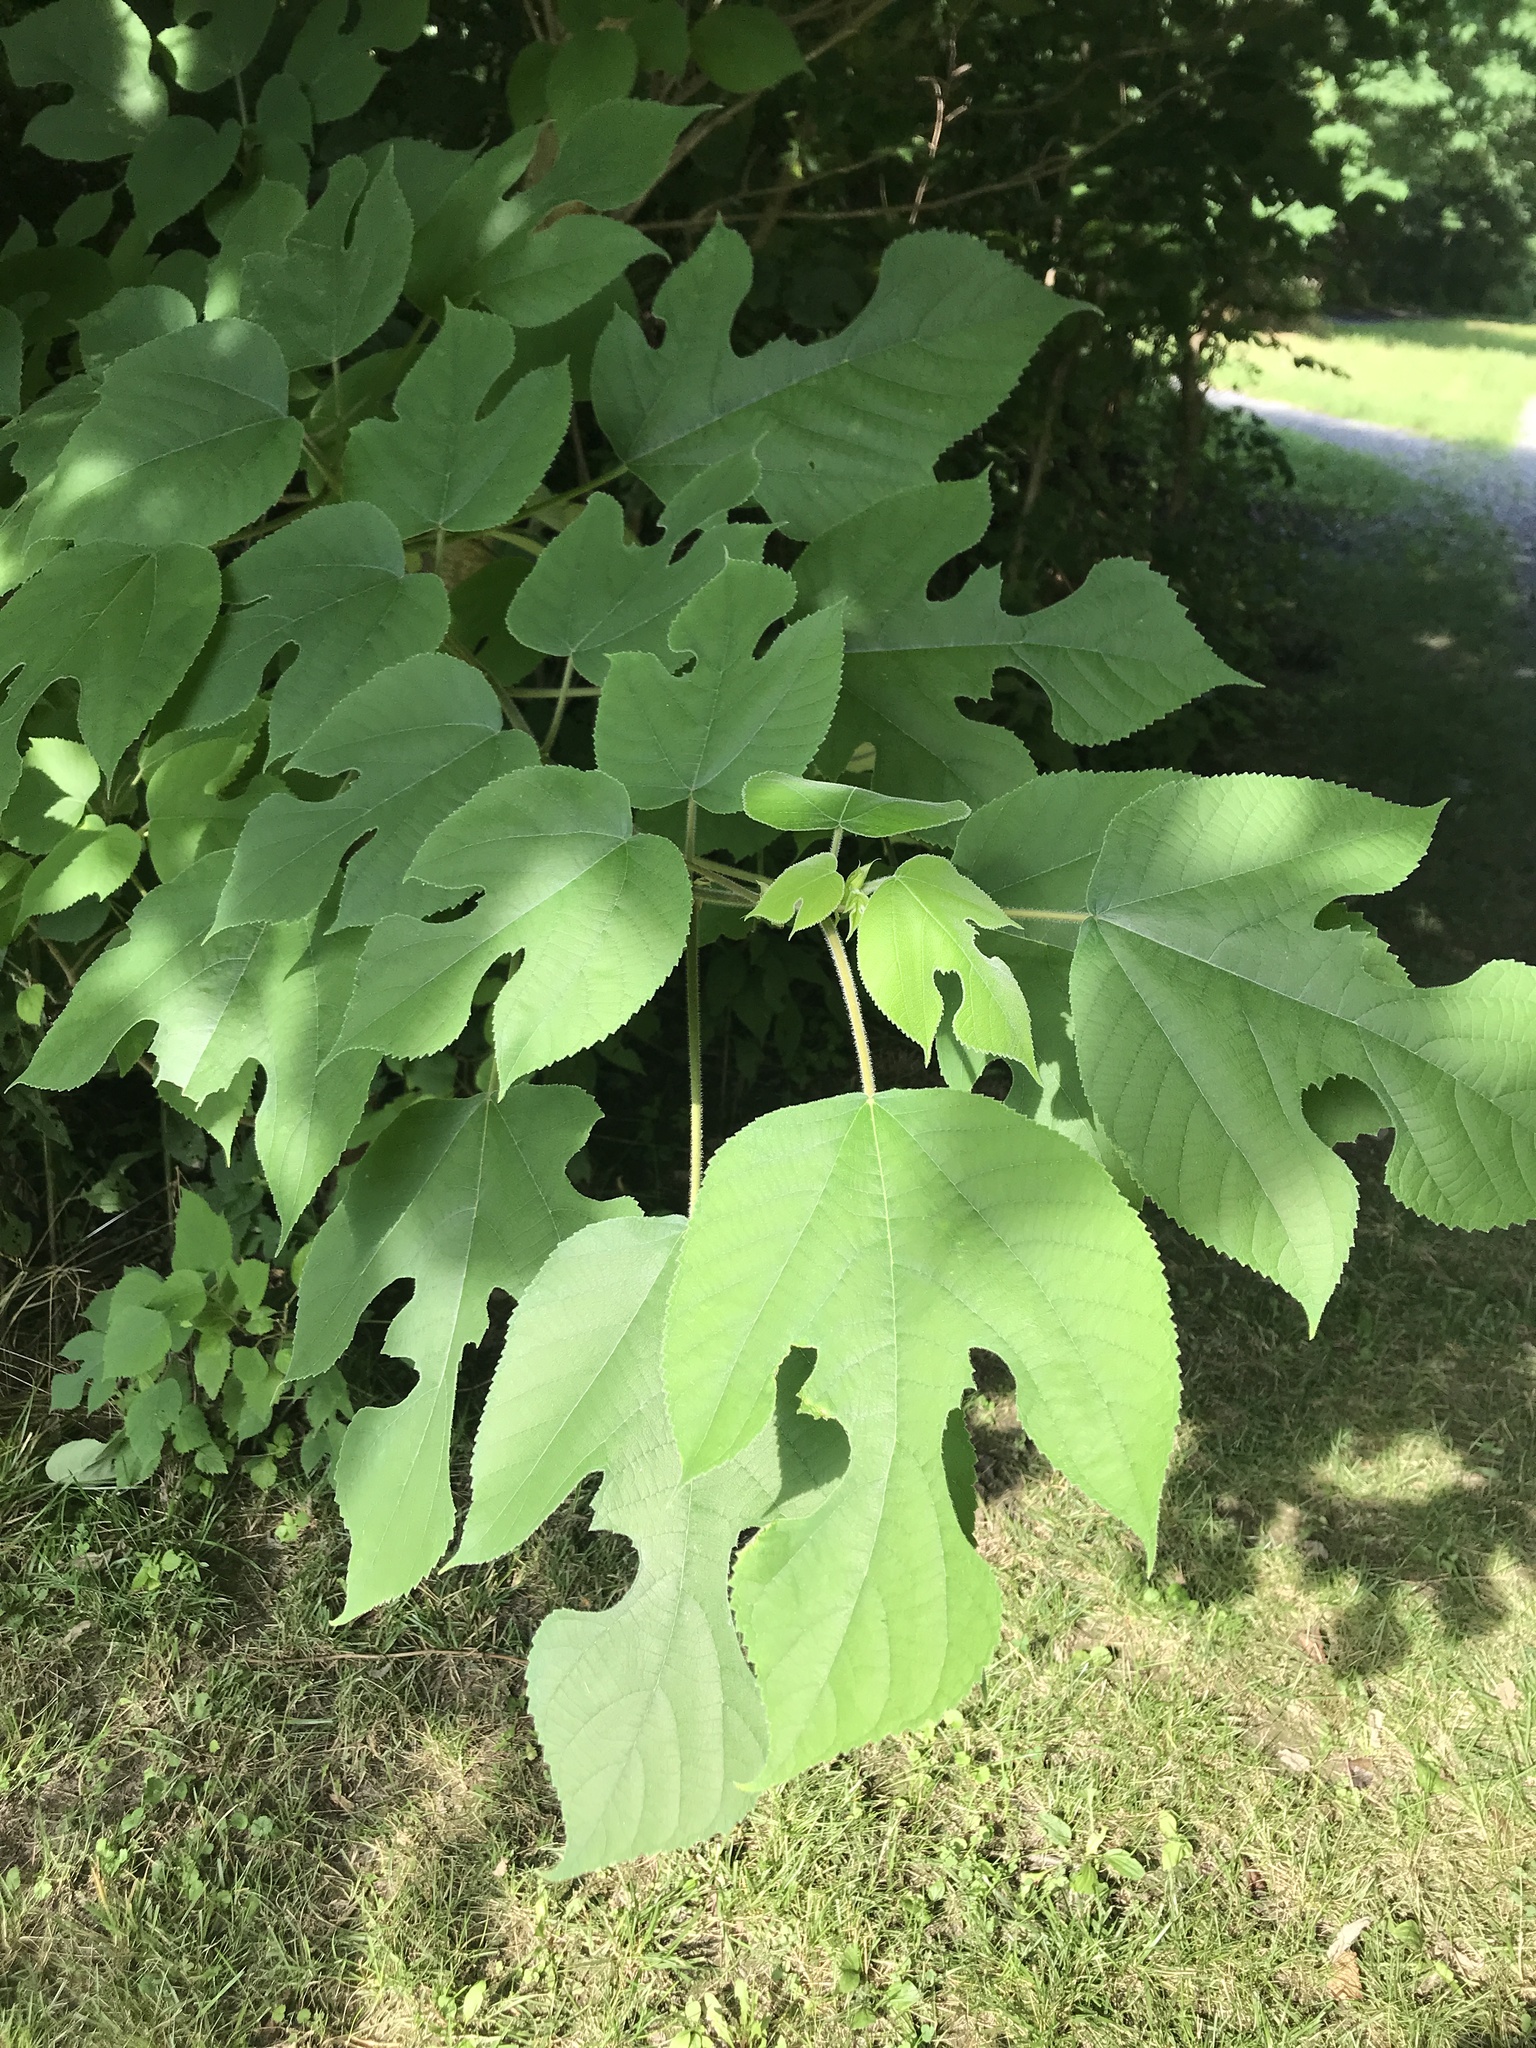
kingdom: Plantae
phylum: Tracheophyta
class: Magnoliopsida
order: Rosales
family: Moraceae
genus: Broussonetia
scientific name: Broussonetia papyrifera
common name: Paper mulberry
